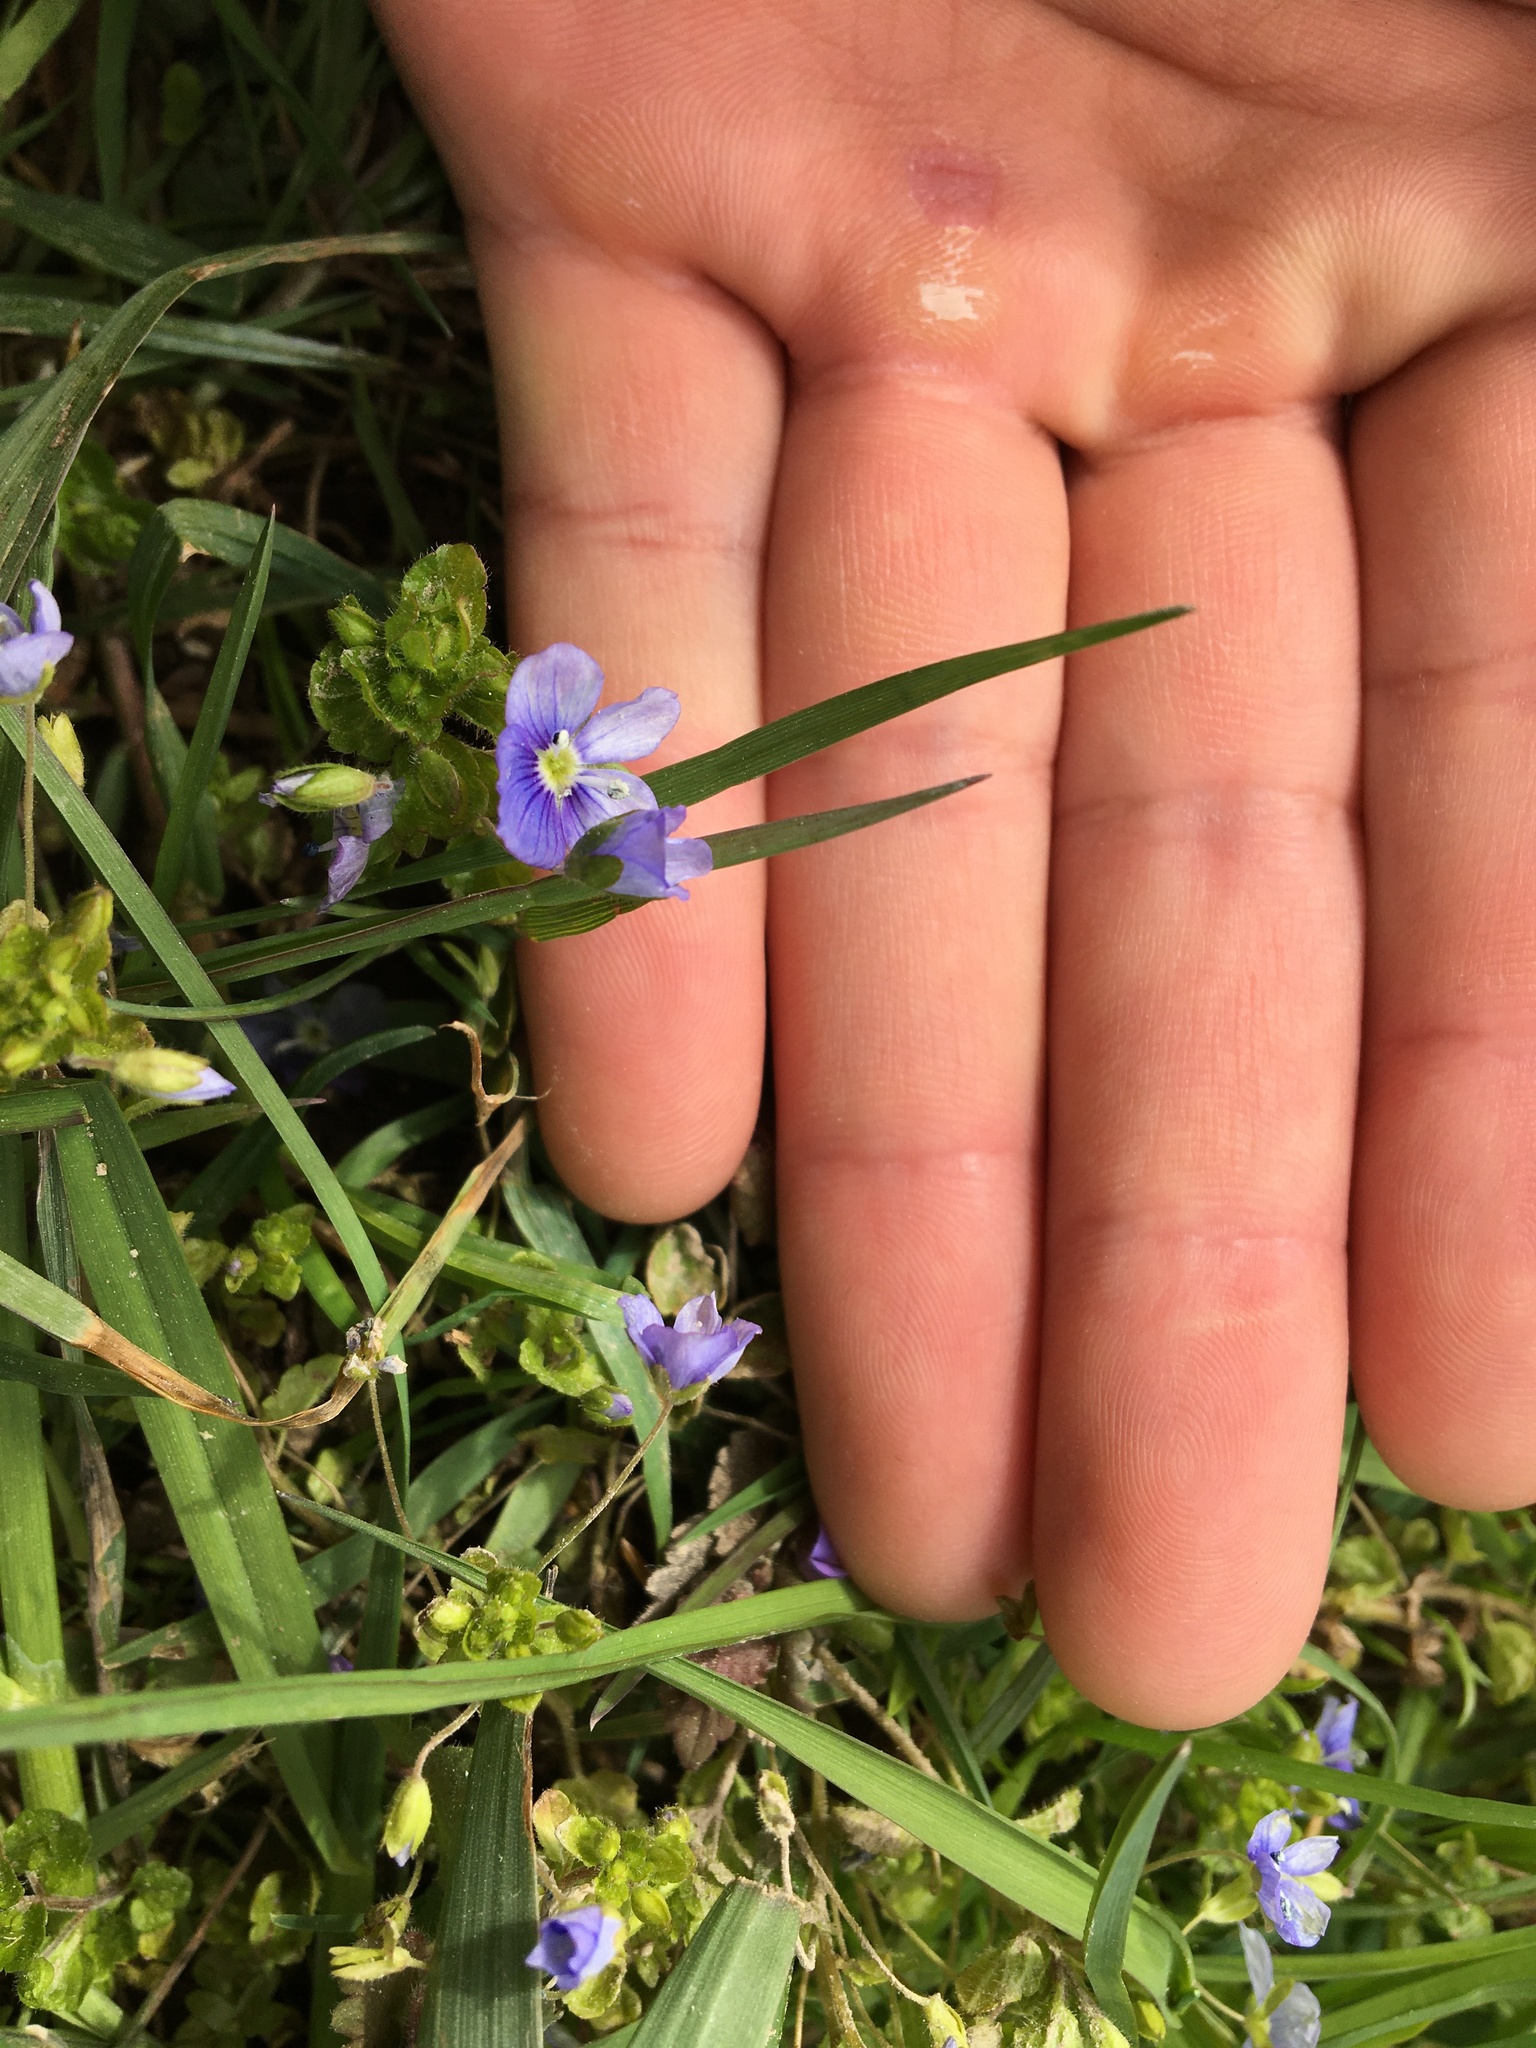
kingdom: Plantae
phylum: Tracheophyta
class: Magnoliopsida
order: Lamiales
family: Plantaginaceae
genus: Veronica
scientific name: Veronica filiformis
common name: Slender speedwell
